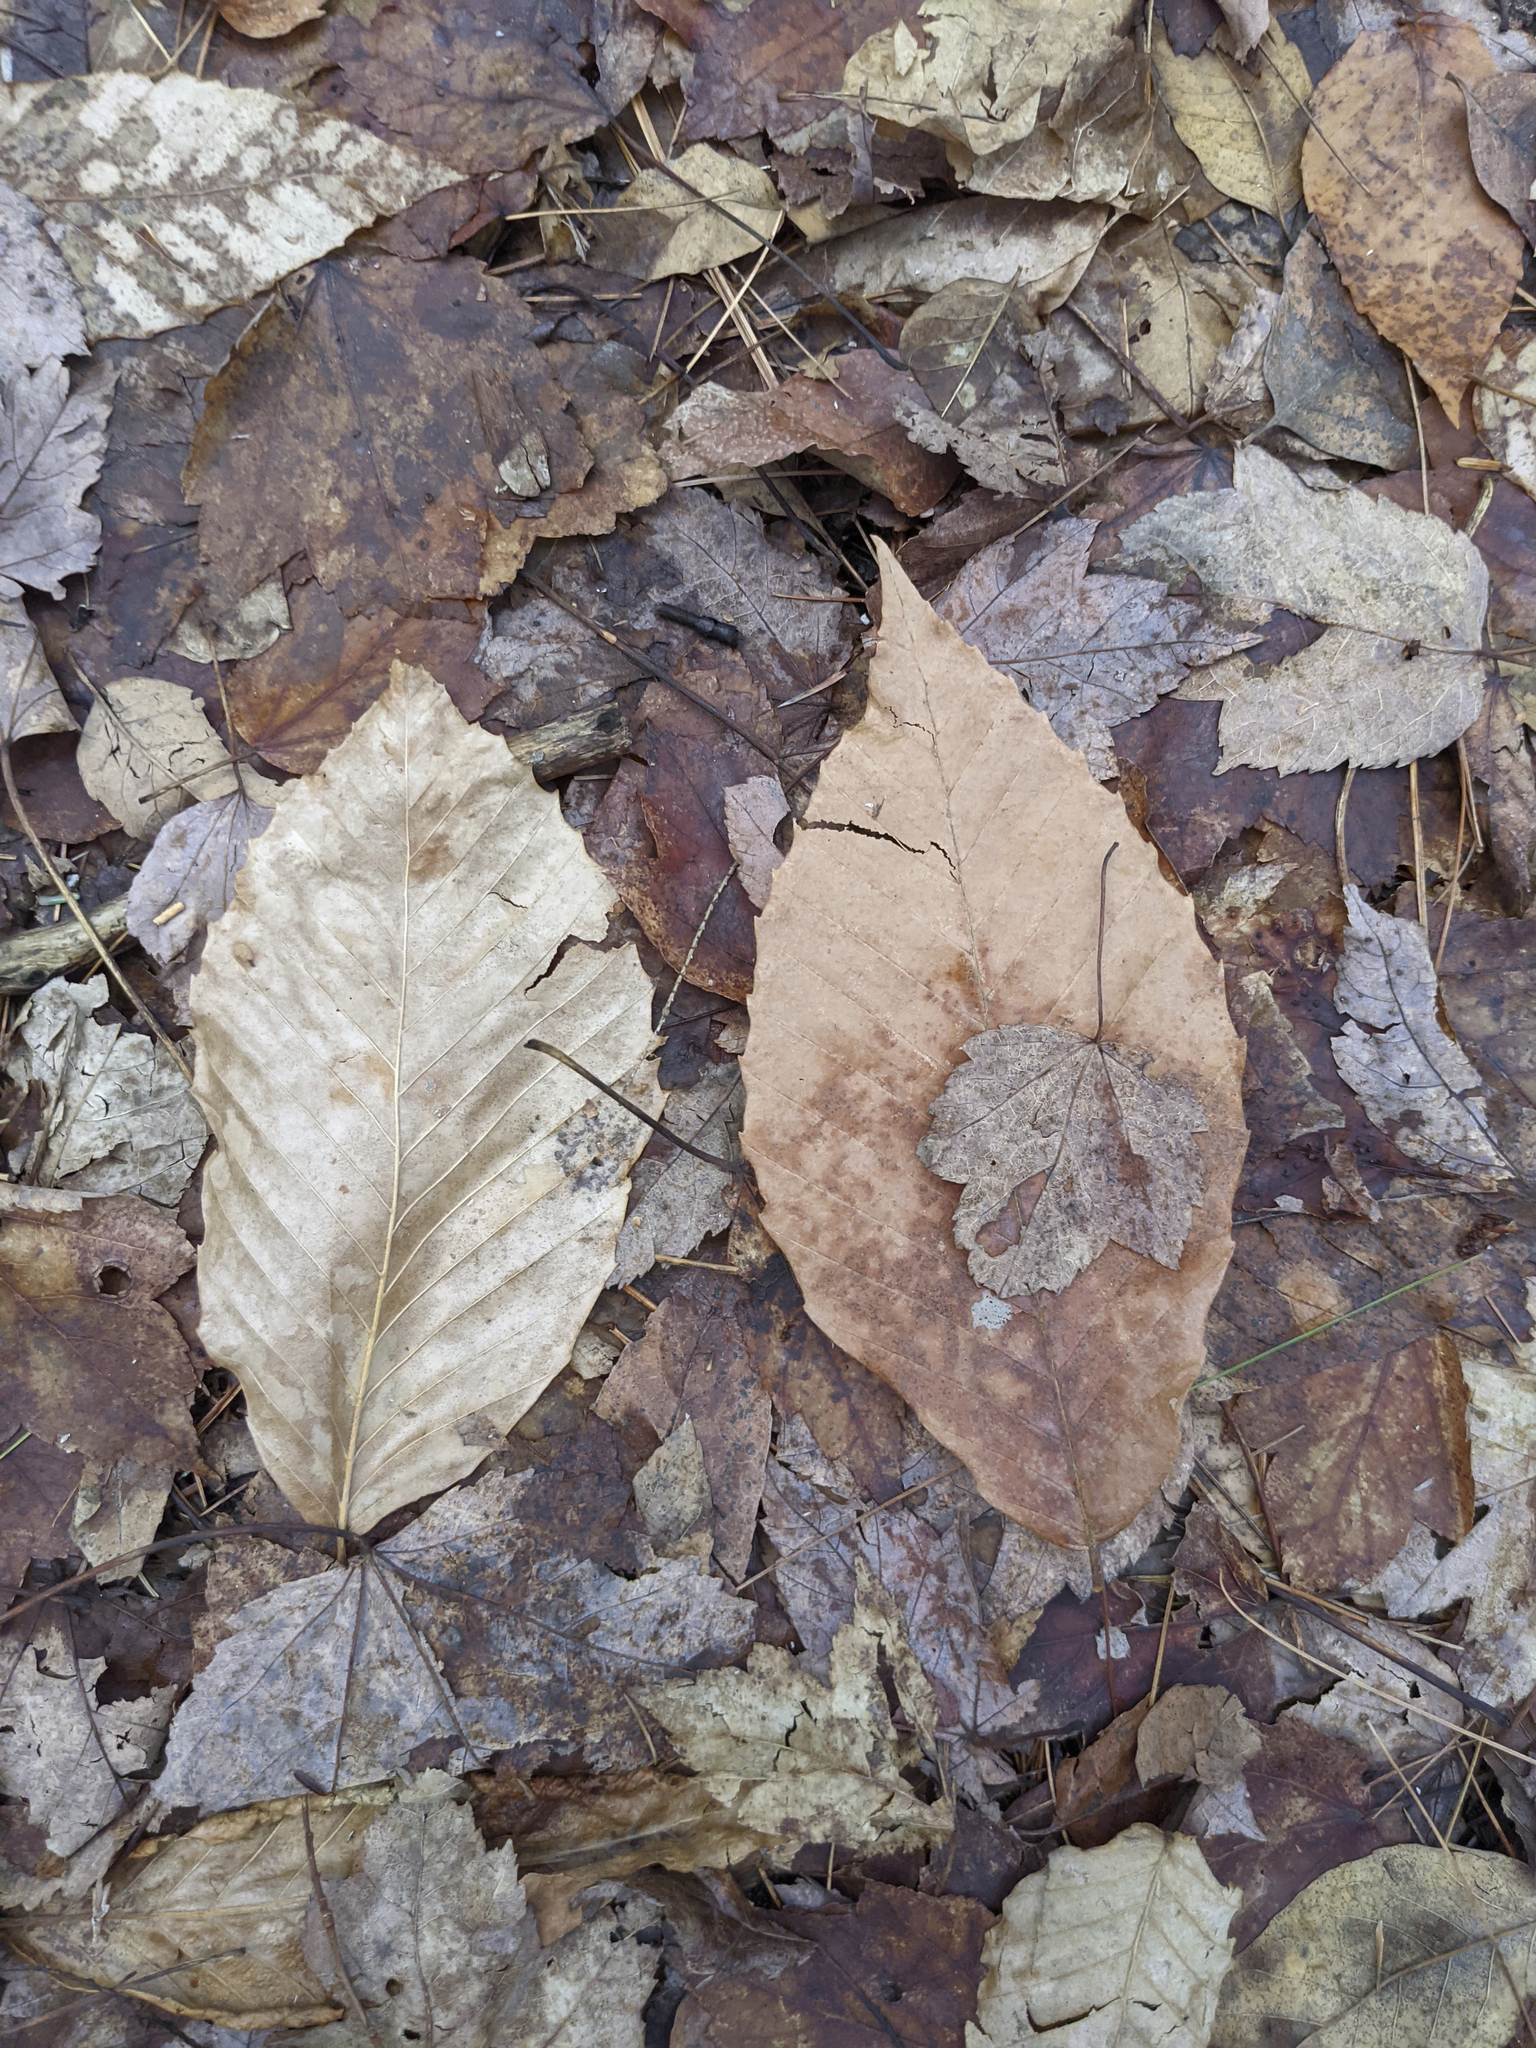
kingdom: Plantae
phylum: Tracheophyta
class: Magnoliopsida
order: Fagales
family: Fagaceae
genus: Fagus
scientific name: Fagus grandifolia
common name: American beech
